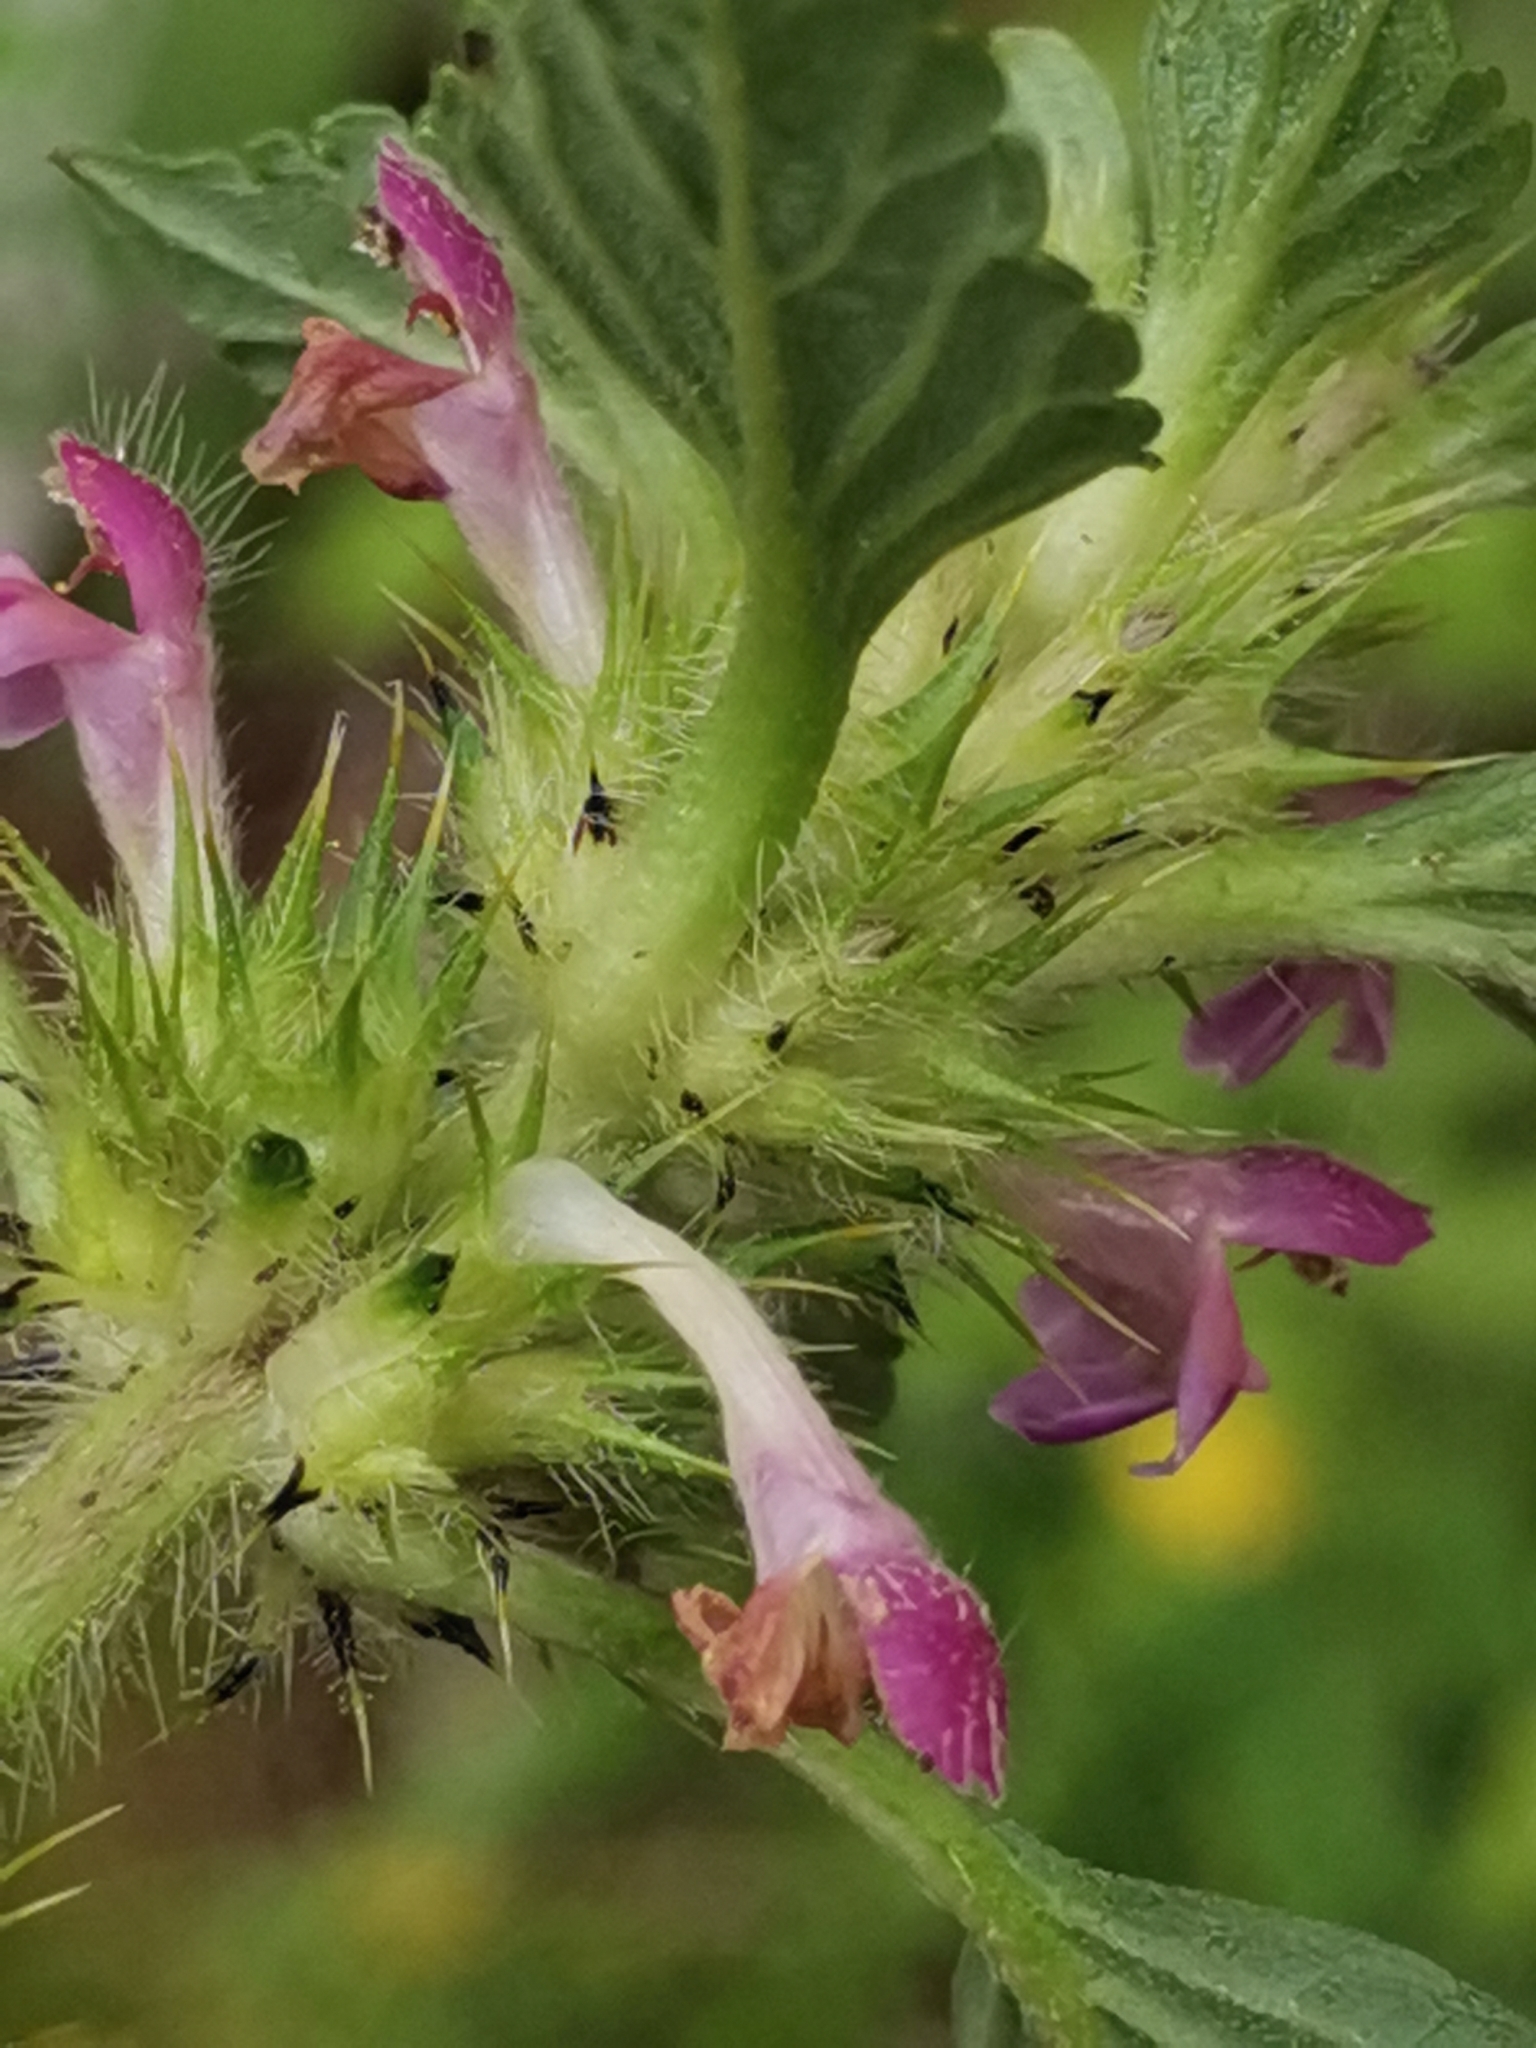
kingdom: Plantae
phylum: Tracheophyta
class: Magnoliopsida
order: Lamiales
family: Lamiaceae
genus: Galeopsis
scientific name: Galeopsis bifida
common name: Bifid hemp-nettle
